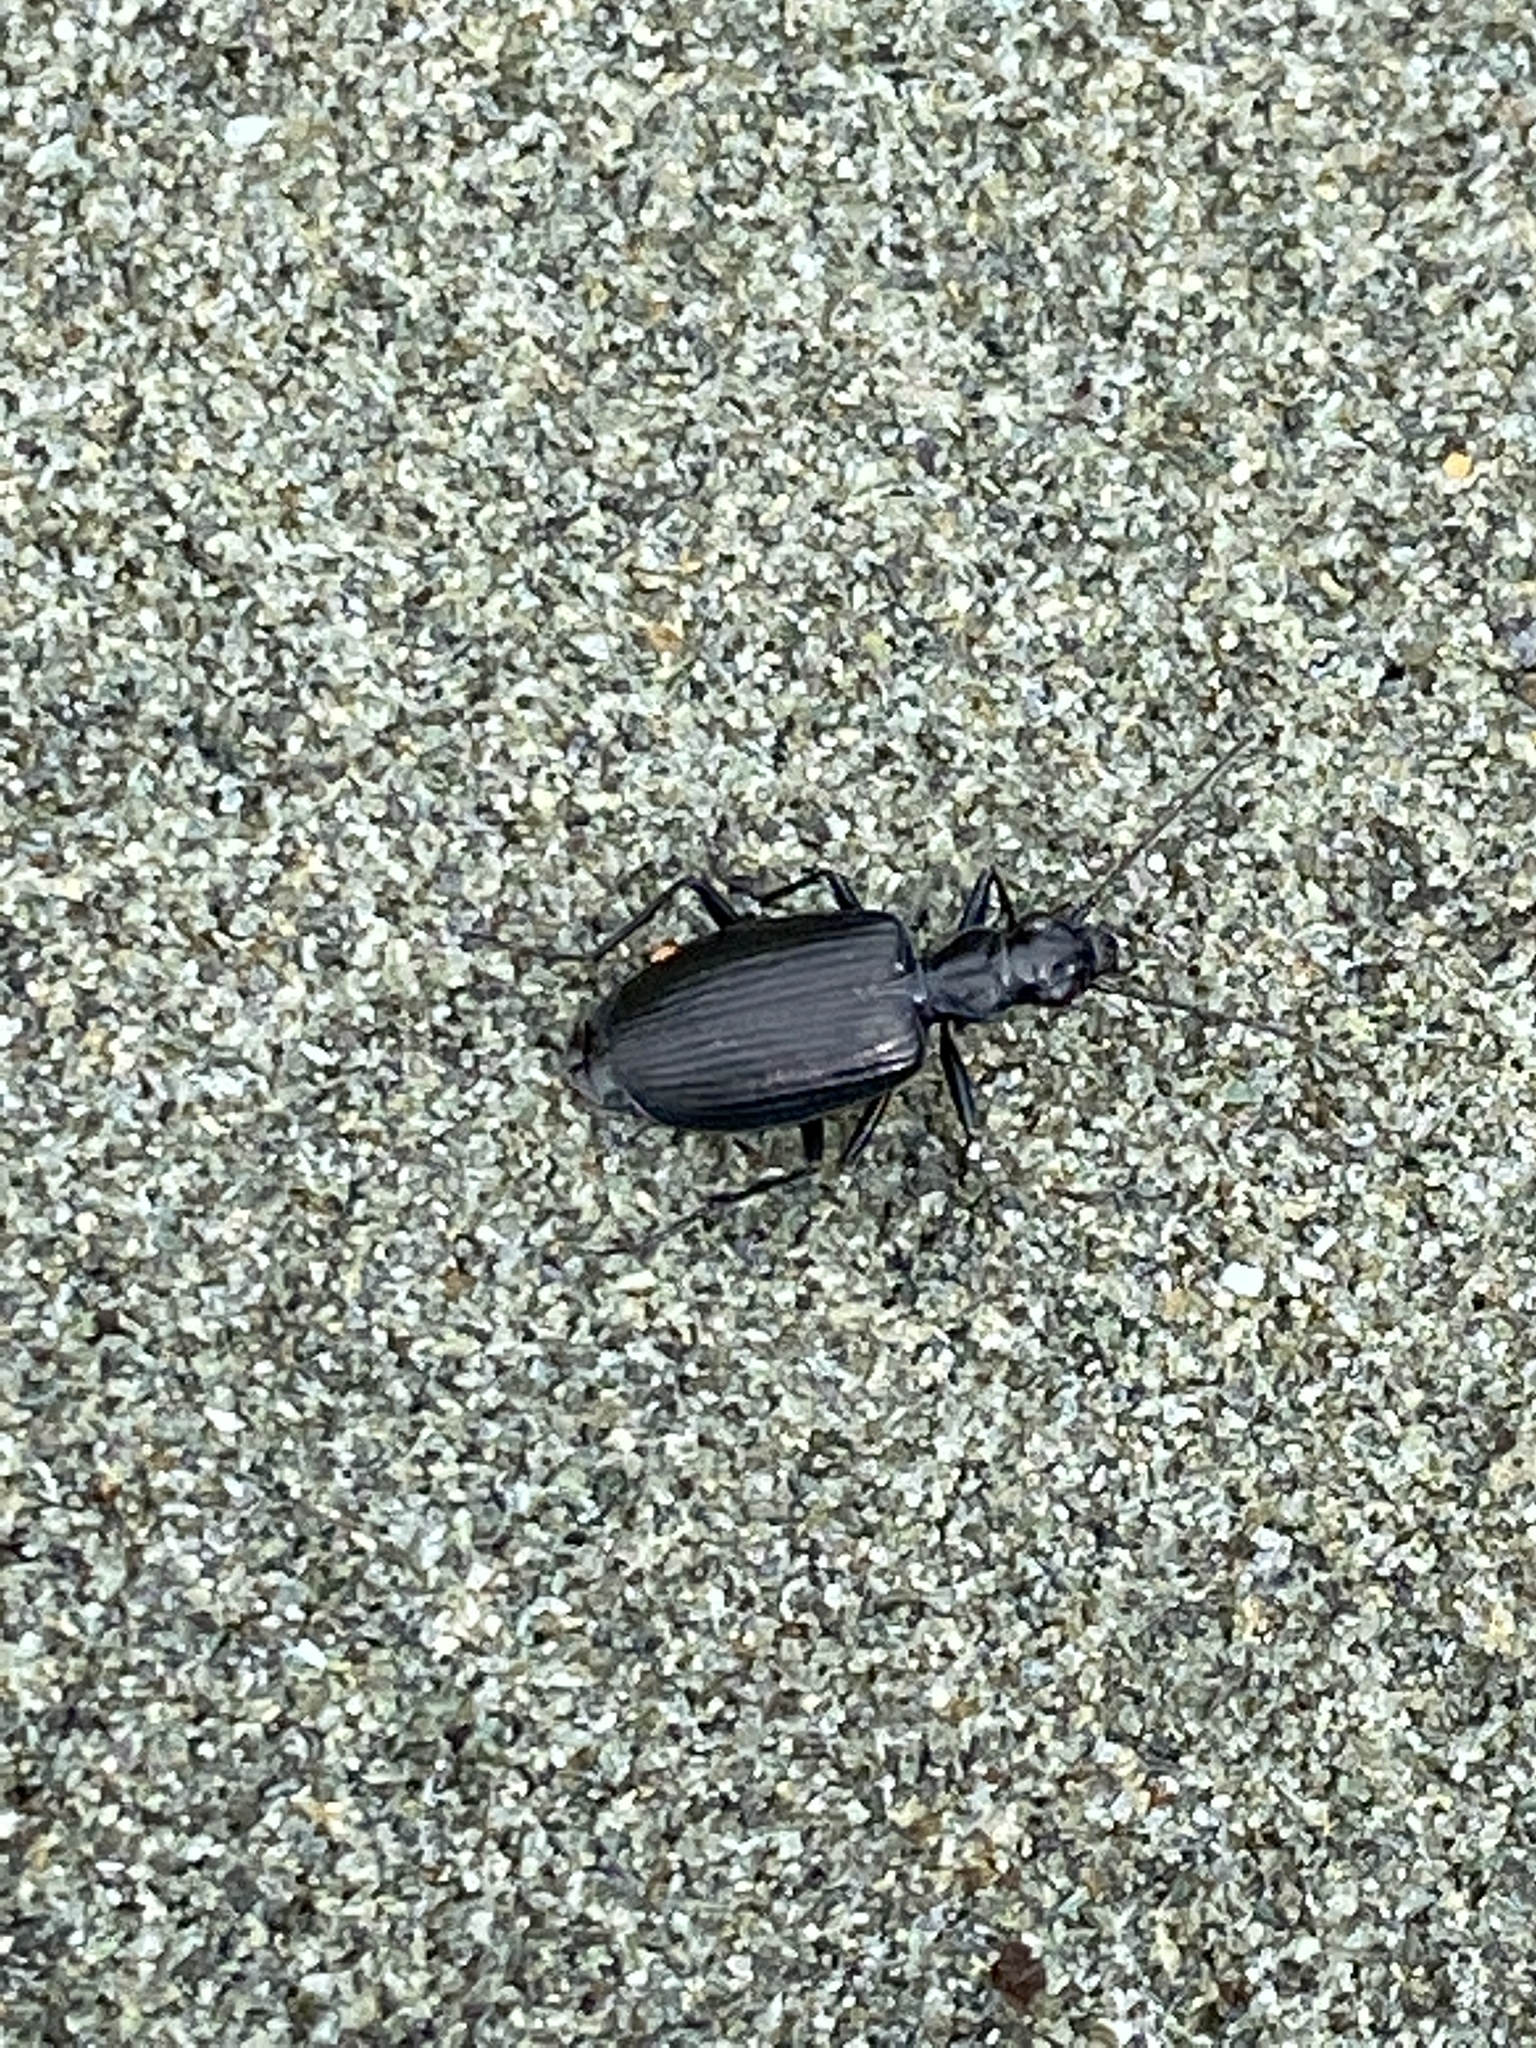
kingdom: Animalia
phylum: Arthropoda
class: Insecta
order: Coleoptera
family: Carabidae
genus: Actenonyx
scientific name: Actenonyx bembidioides
